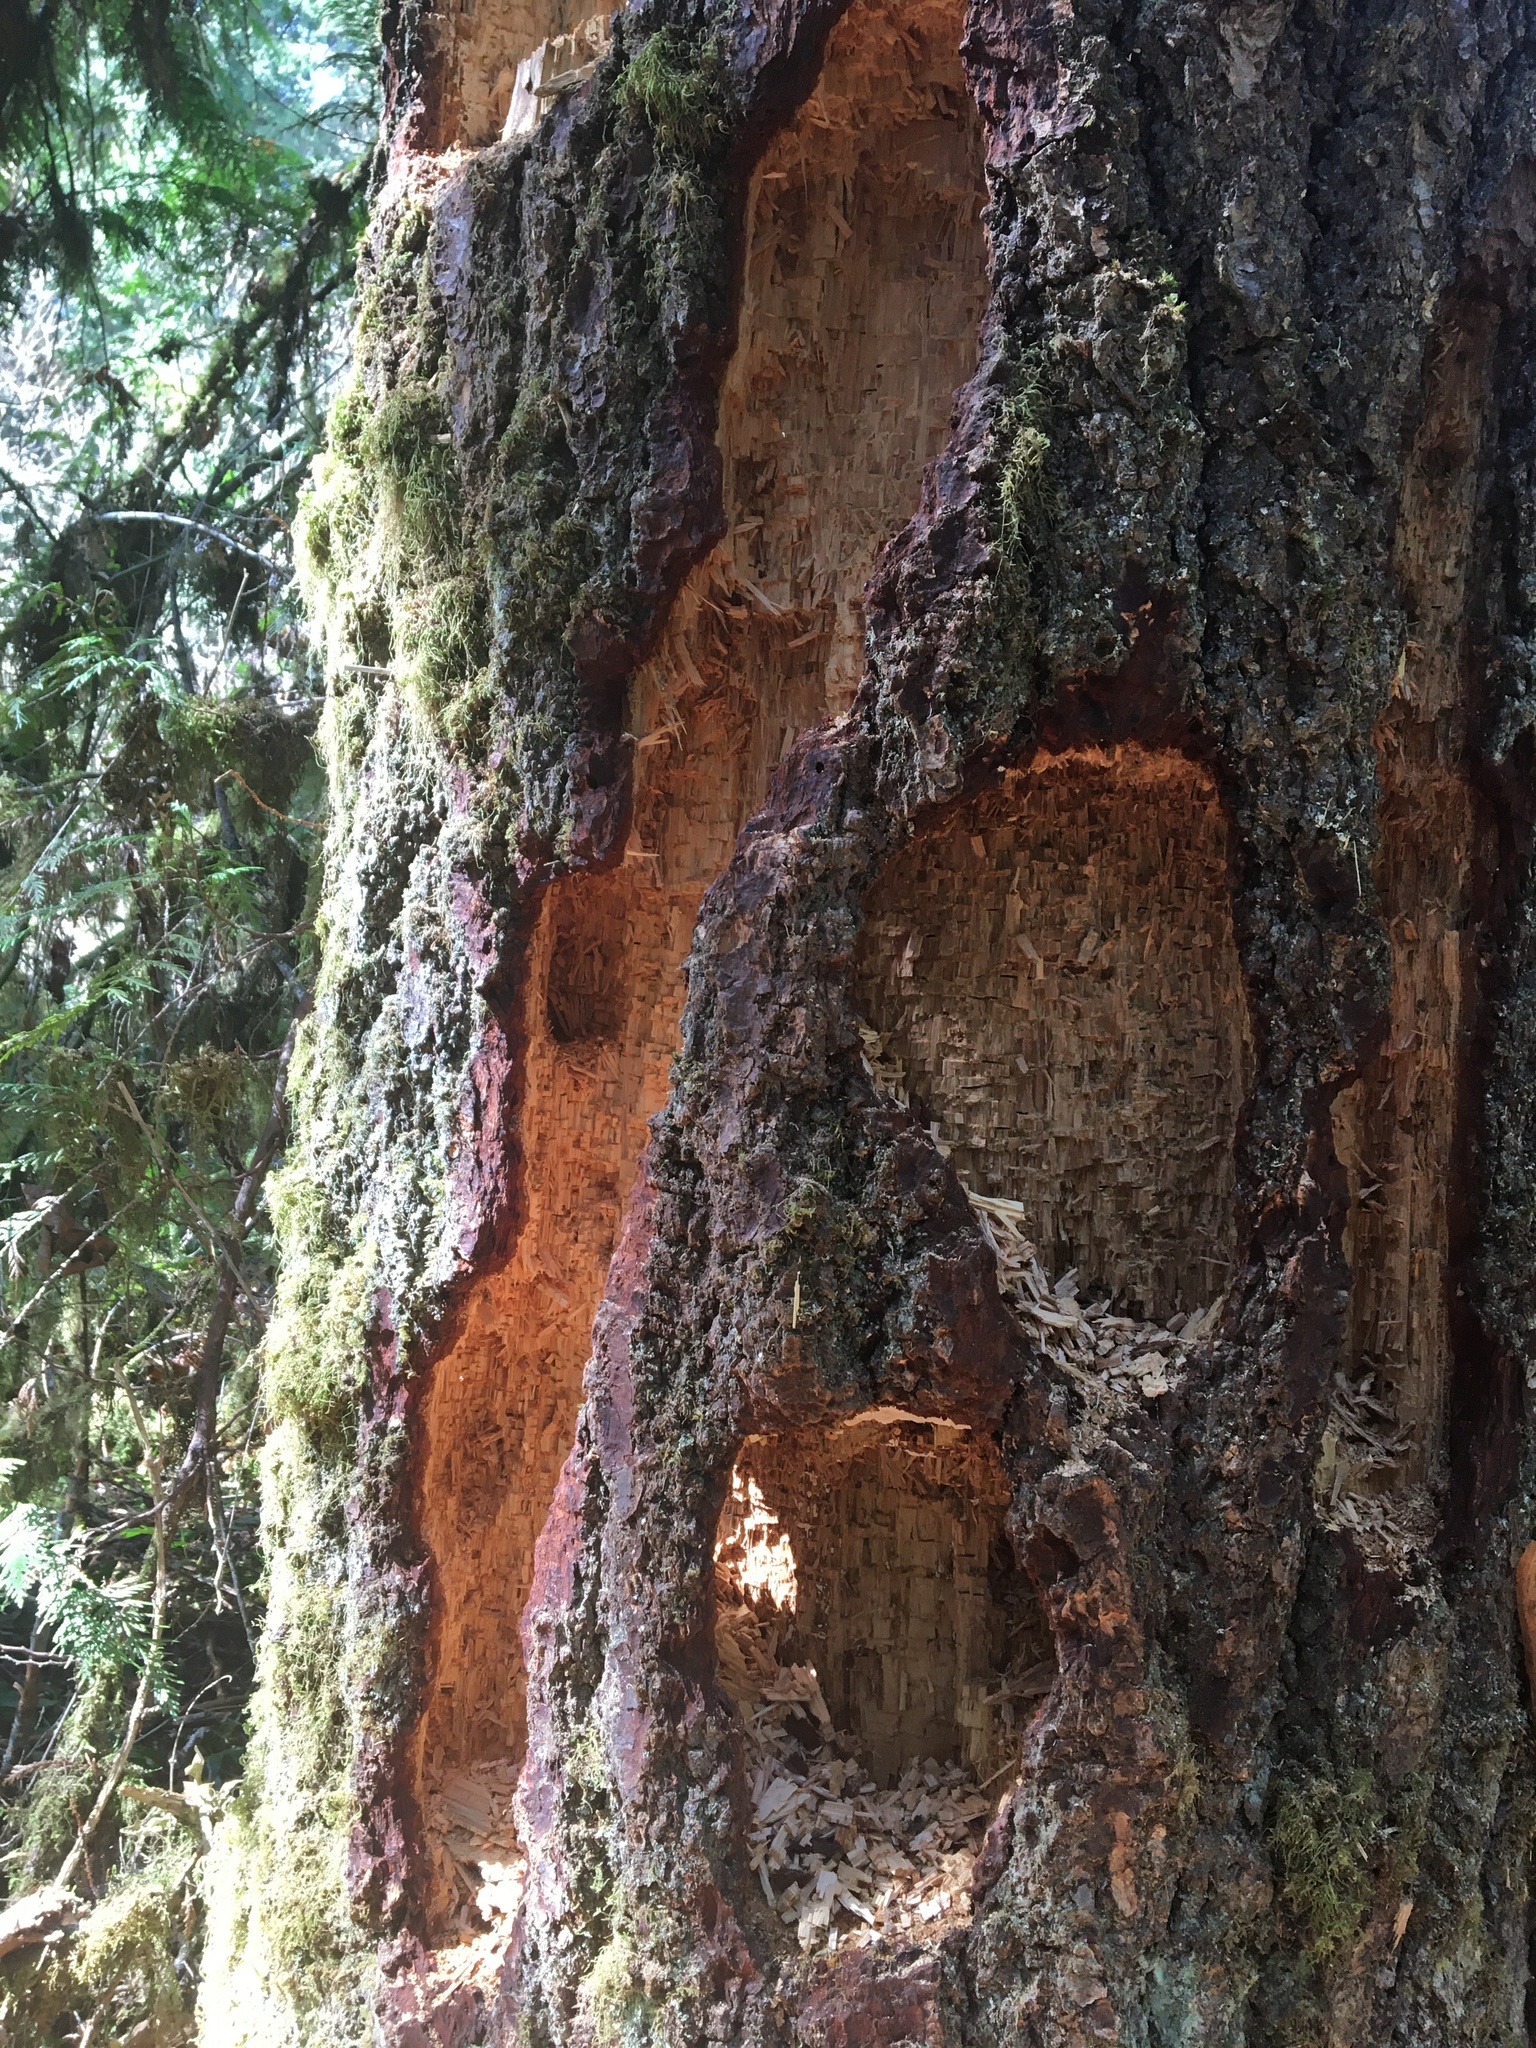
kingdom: Animalia
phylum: Chordata
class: Aves
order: Piciformes
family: Picidae
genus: Dryocopus
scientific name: Dryocopus pileatus
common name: Pileated woodpecker
